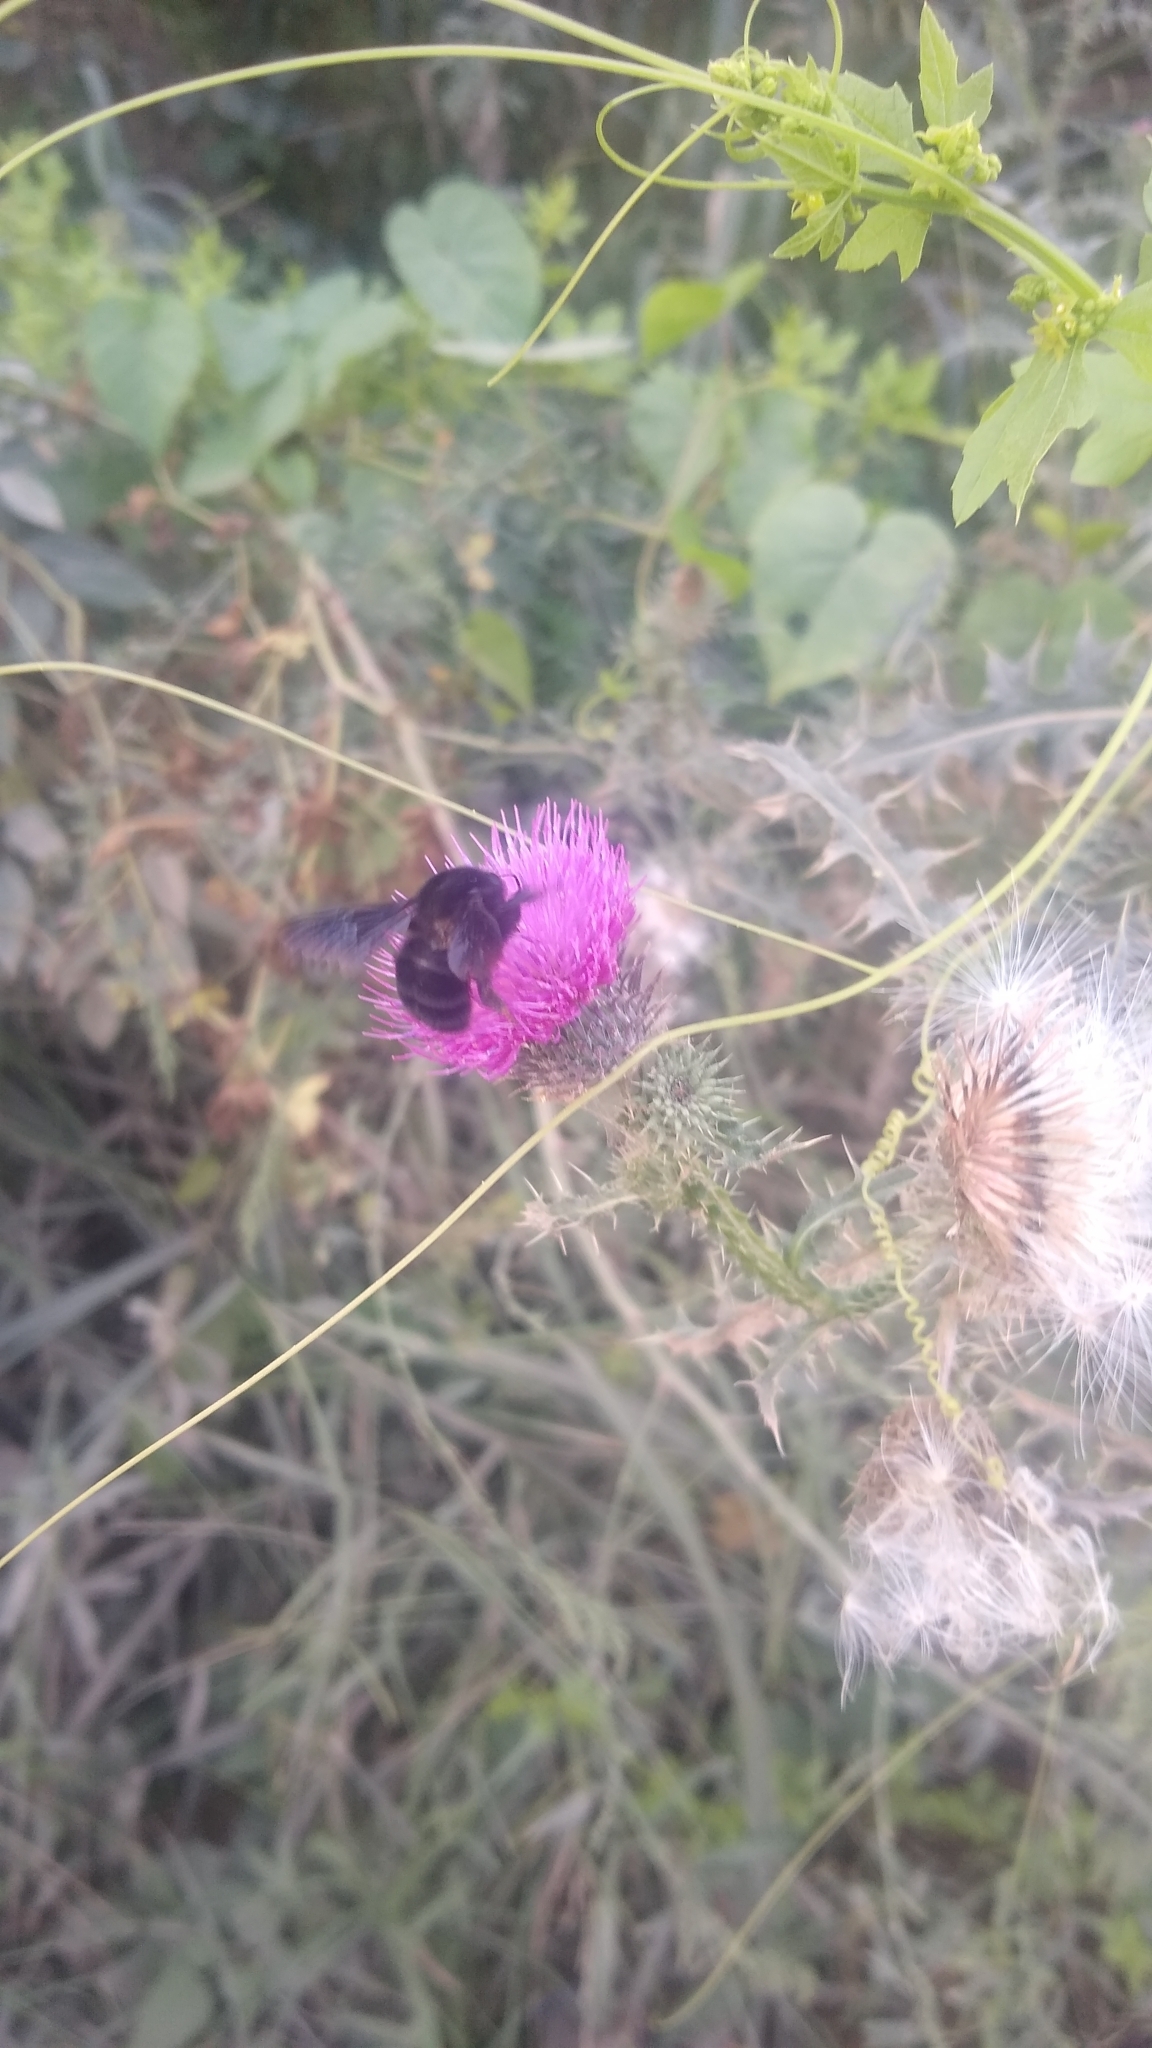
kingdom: Animalia
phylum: Arthropoda
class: Insecta
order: Hymenoptera
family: Apidae
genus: Bombus
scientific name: Bombus pauloensis
